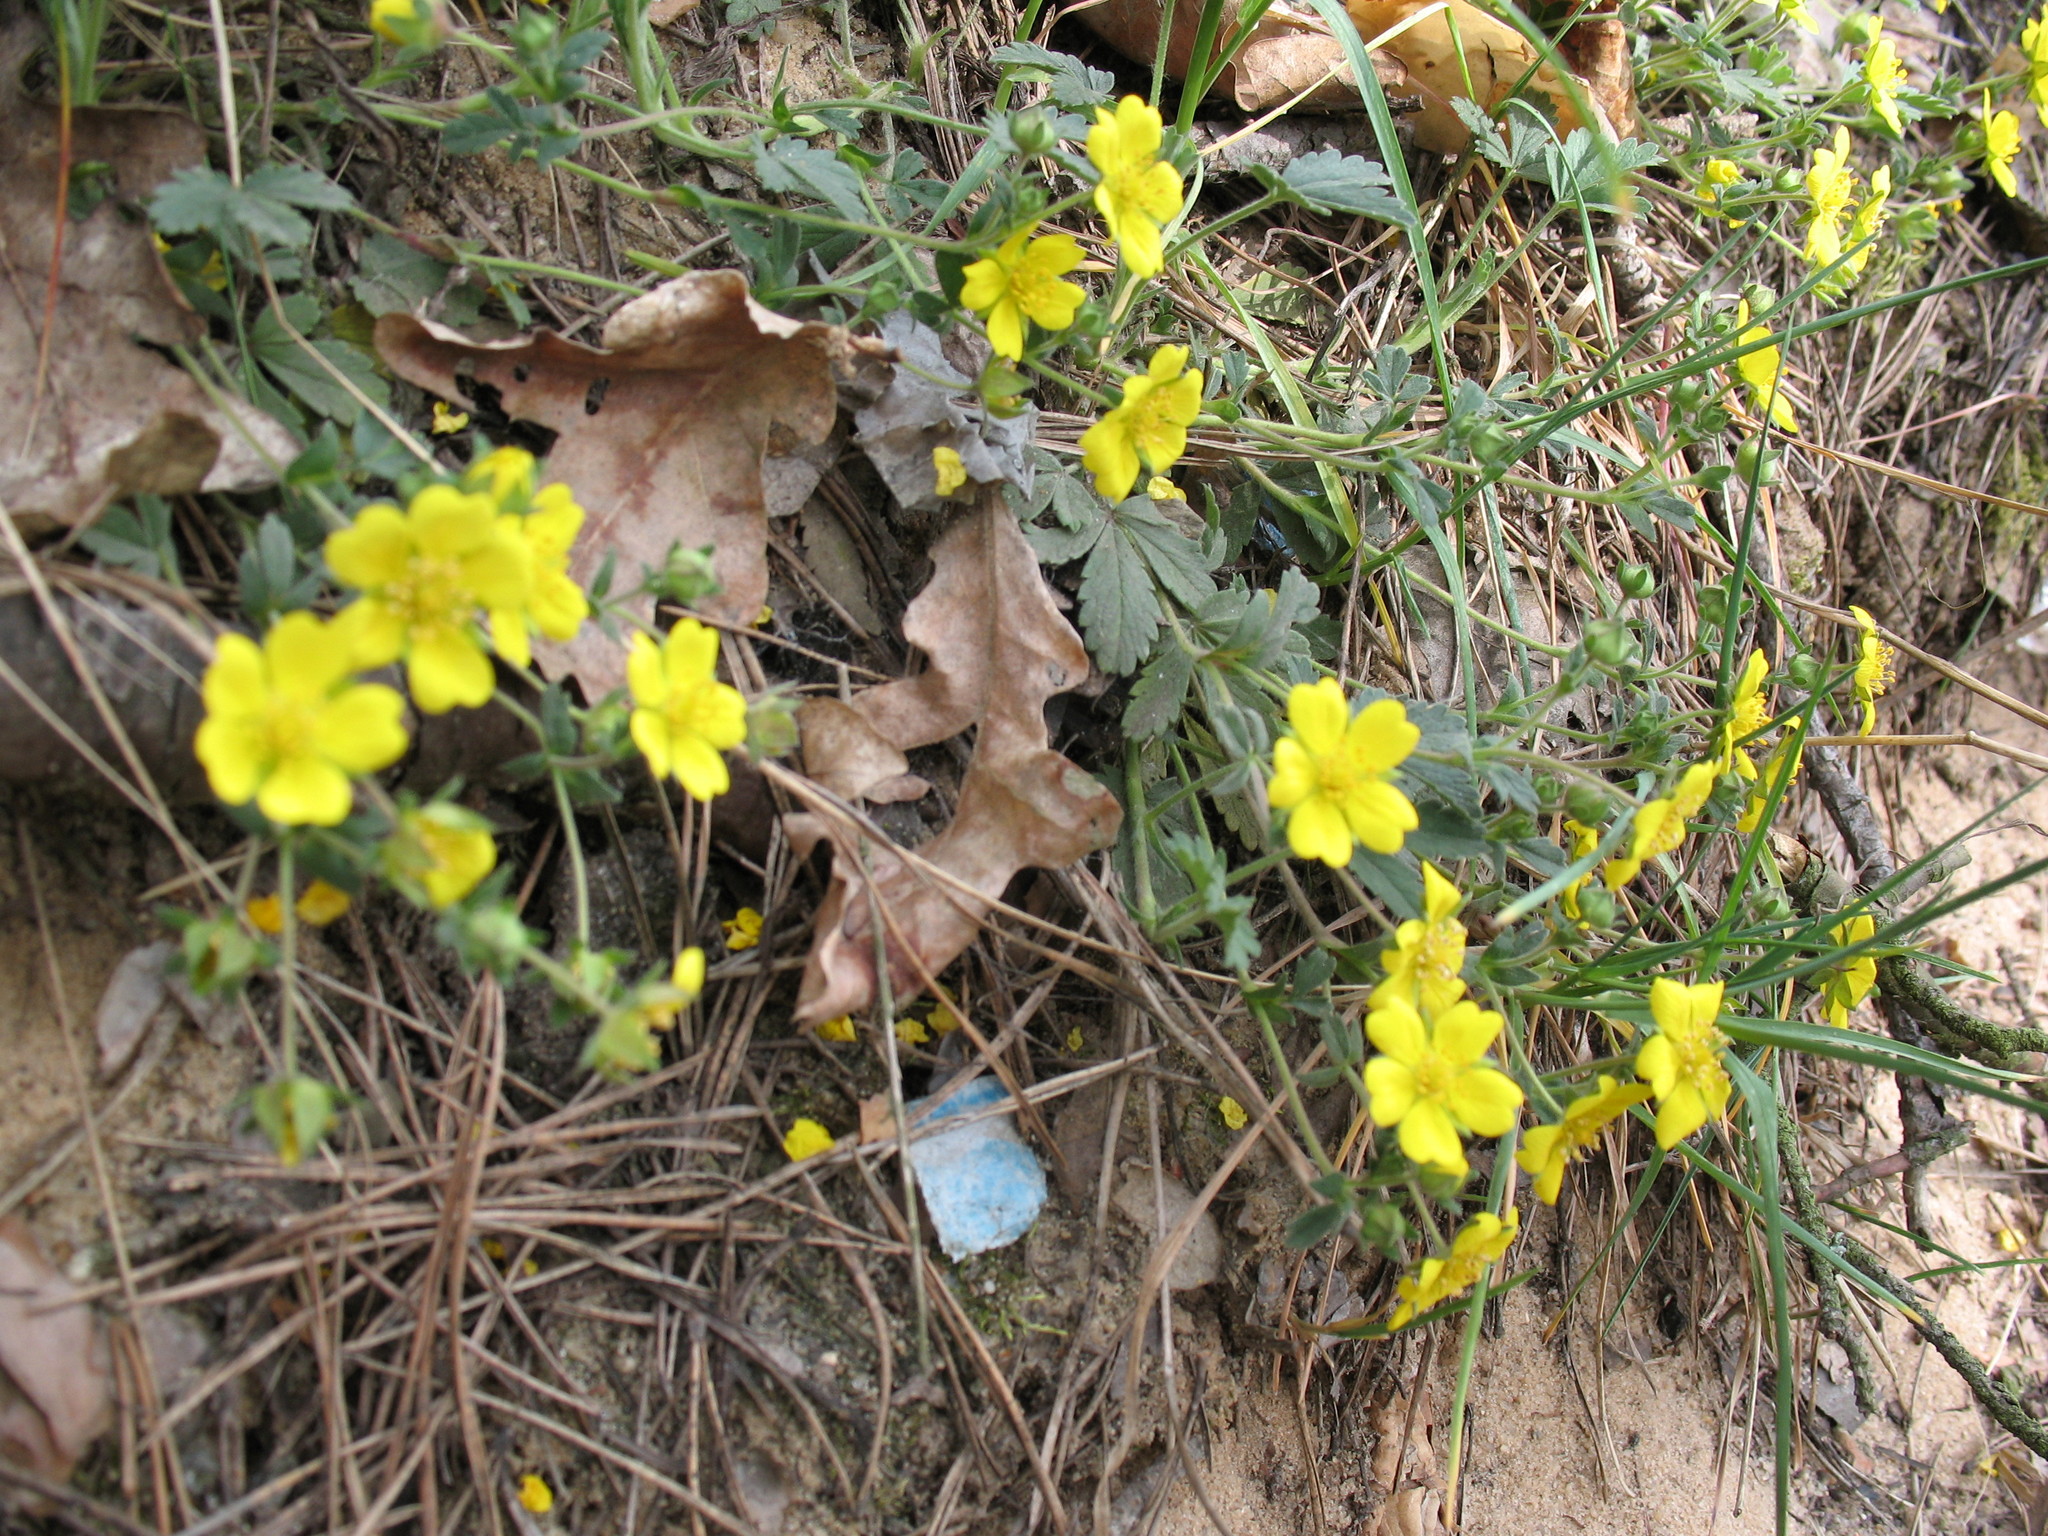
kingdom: Plantae
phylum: Tracheophyta
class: Magnoliopsida
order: Rosales
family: Rosaceae
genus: Potentilla
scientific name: Potentilla incana
